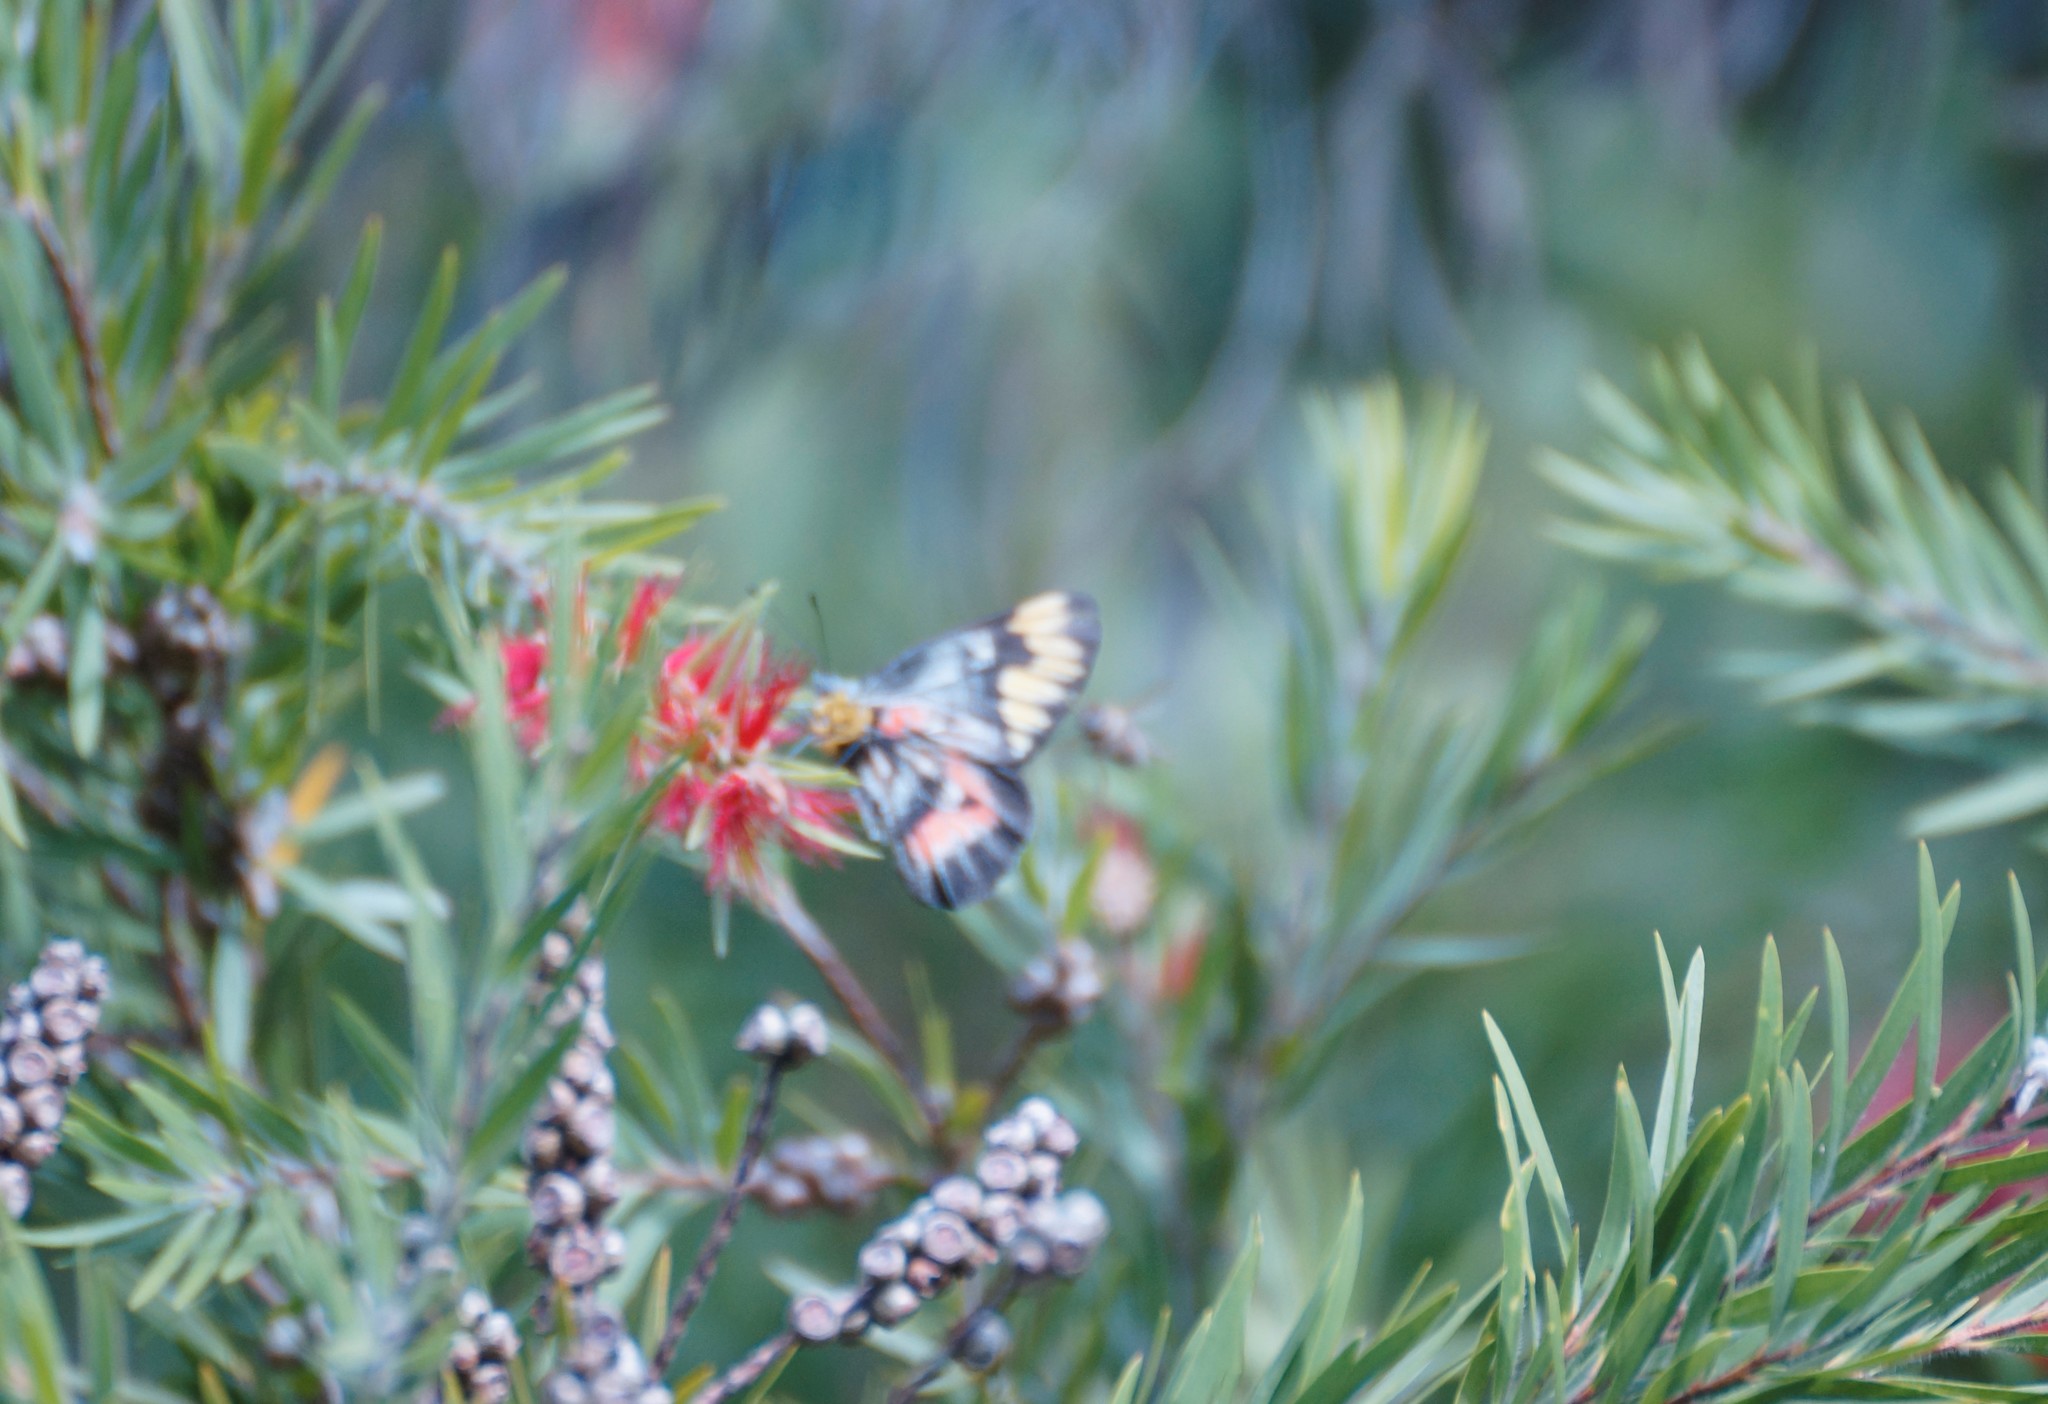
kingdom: Animalia
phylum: Arthropoda
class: Insecta
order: Lepidoptera
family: Pieridae
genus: Delias
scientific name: Delias harpalyce
